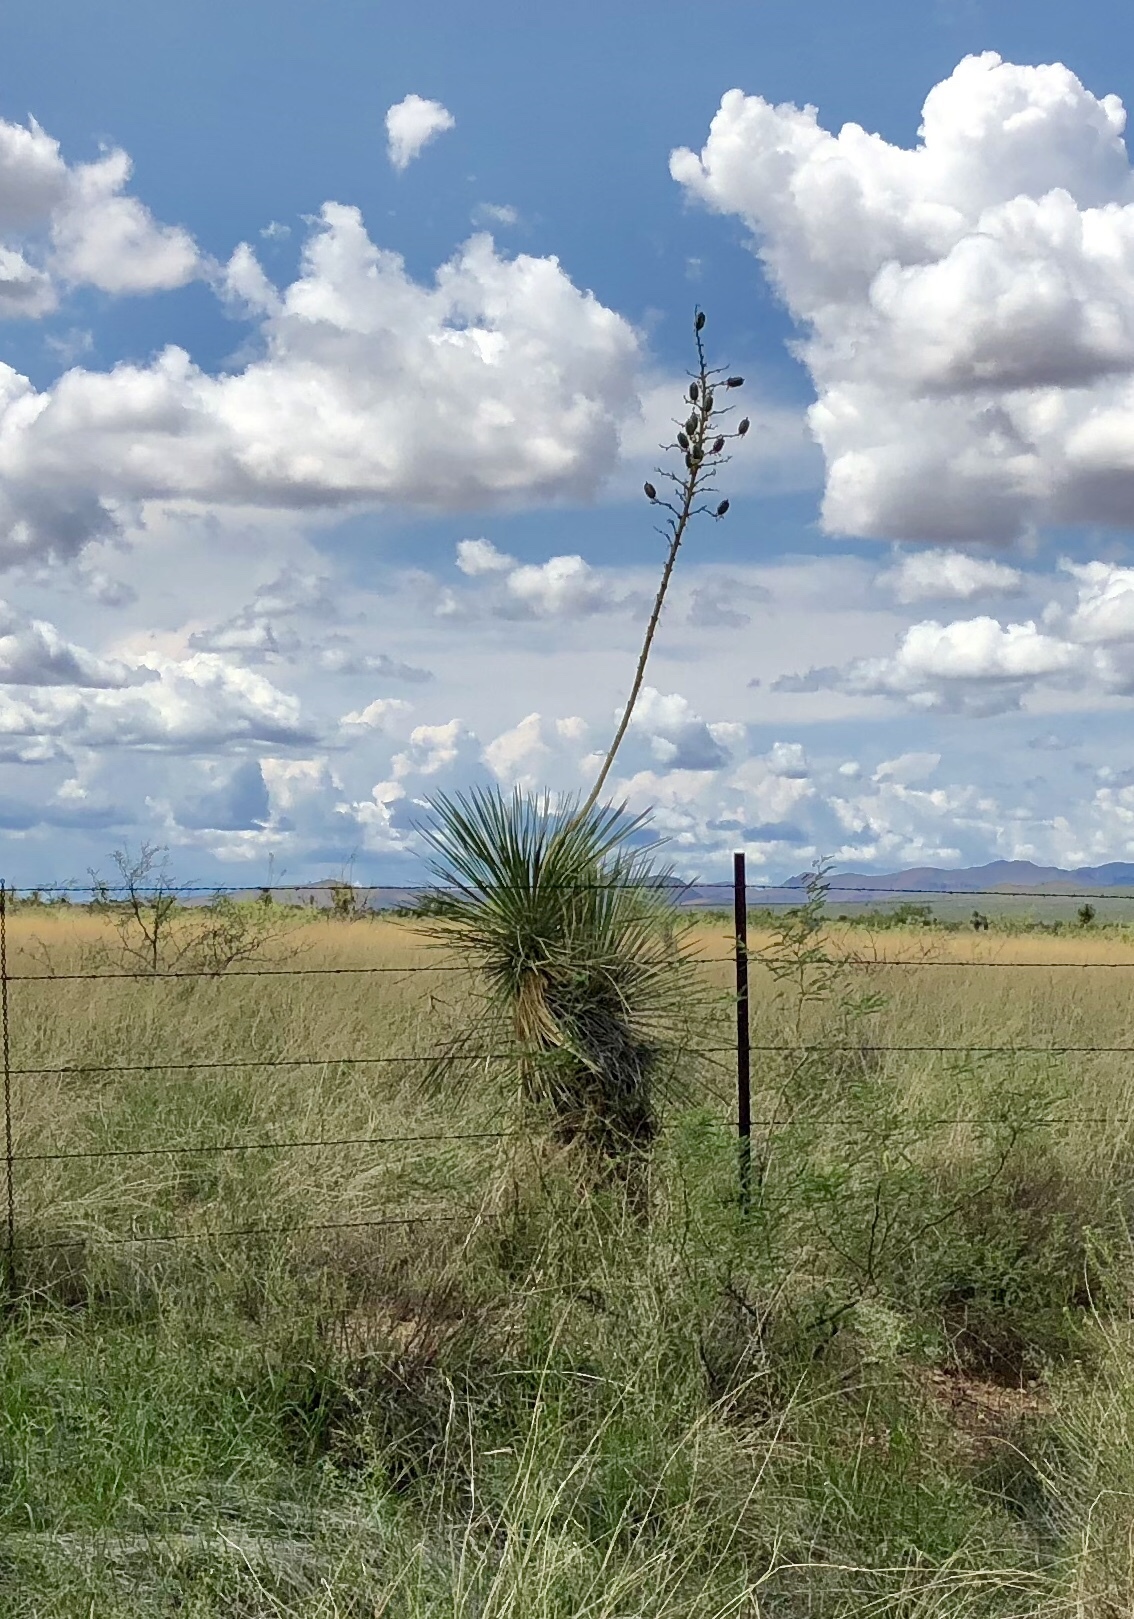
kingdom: Plantae
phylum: Tracheophyta
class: Liliopsida
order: Asparagales
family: Asparagaceae
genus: Yucca
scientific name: Yucca elata
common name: Palmella
